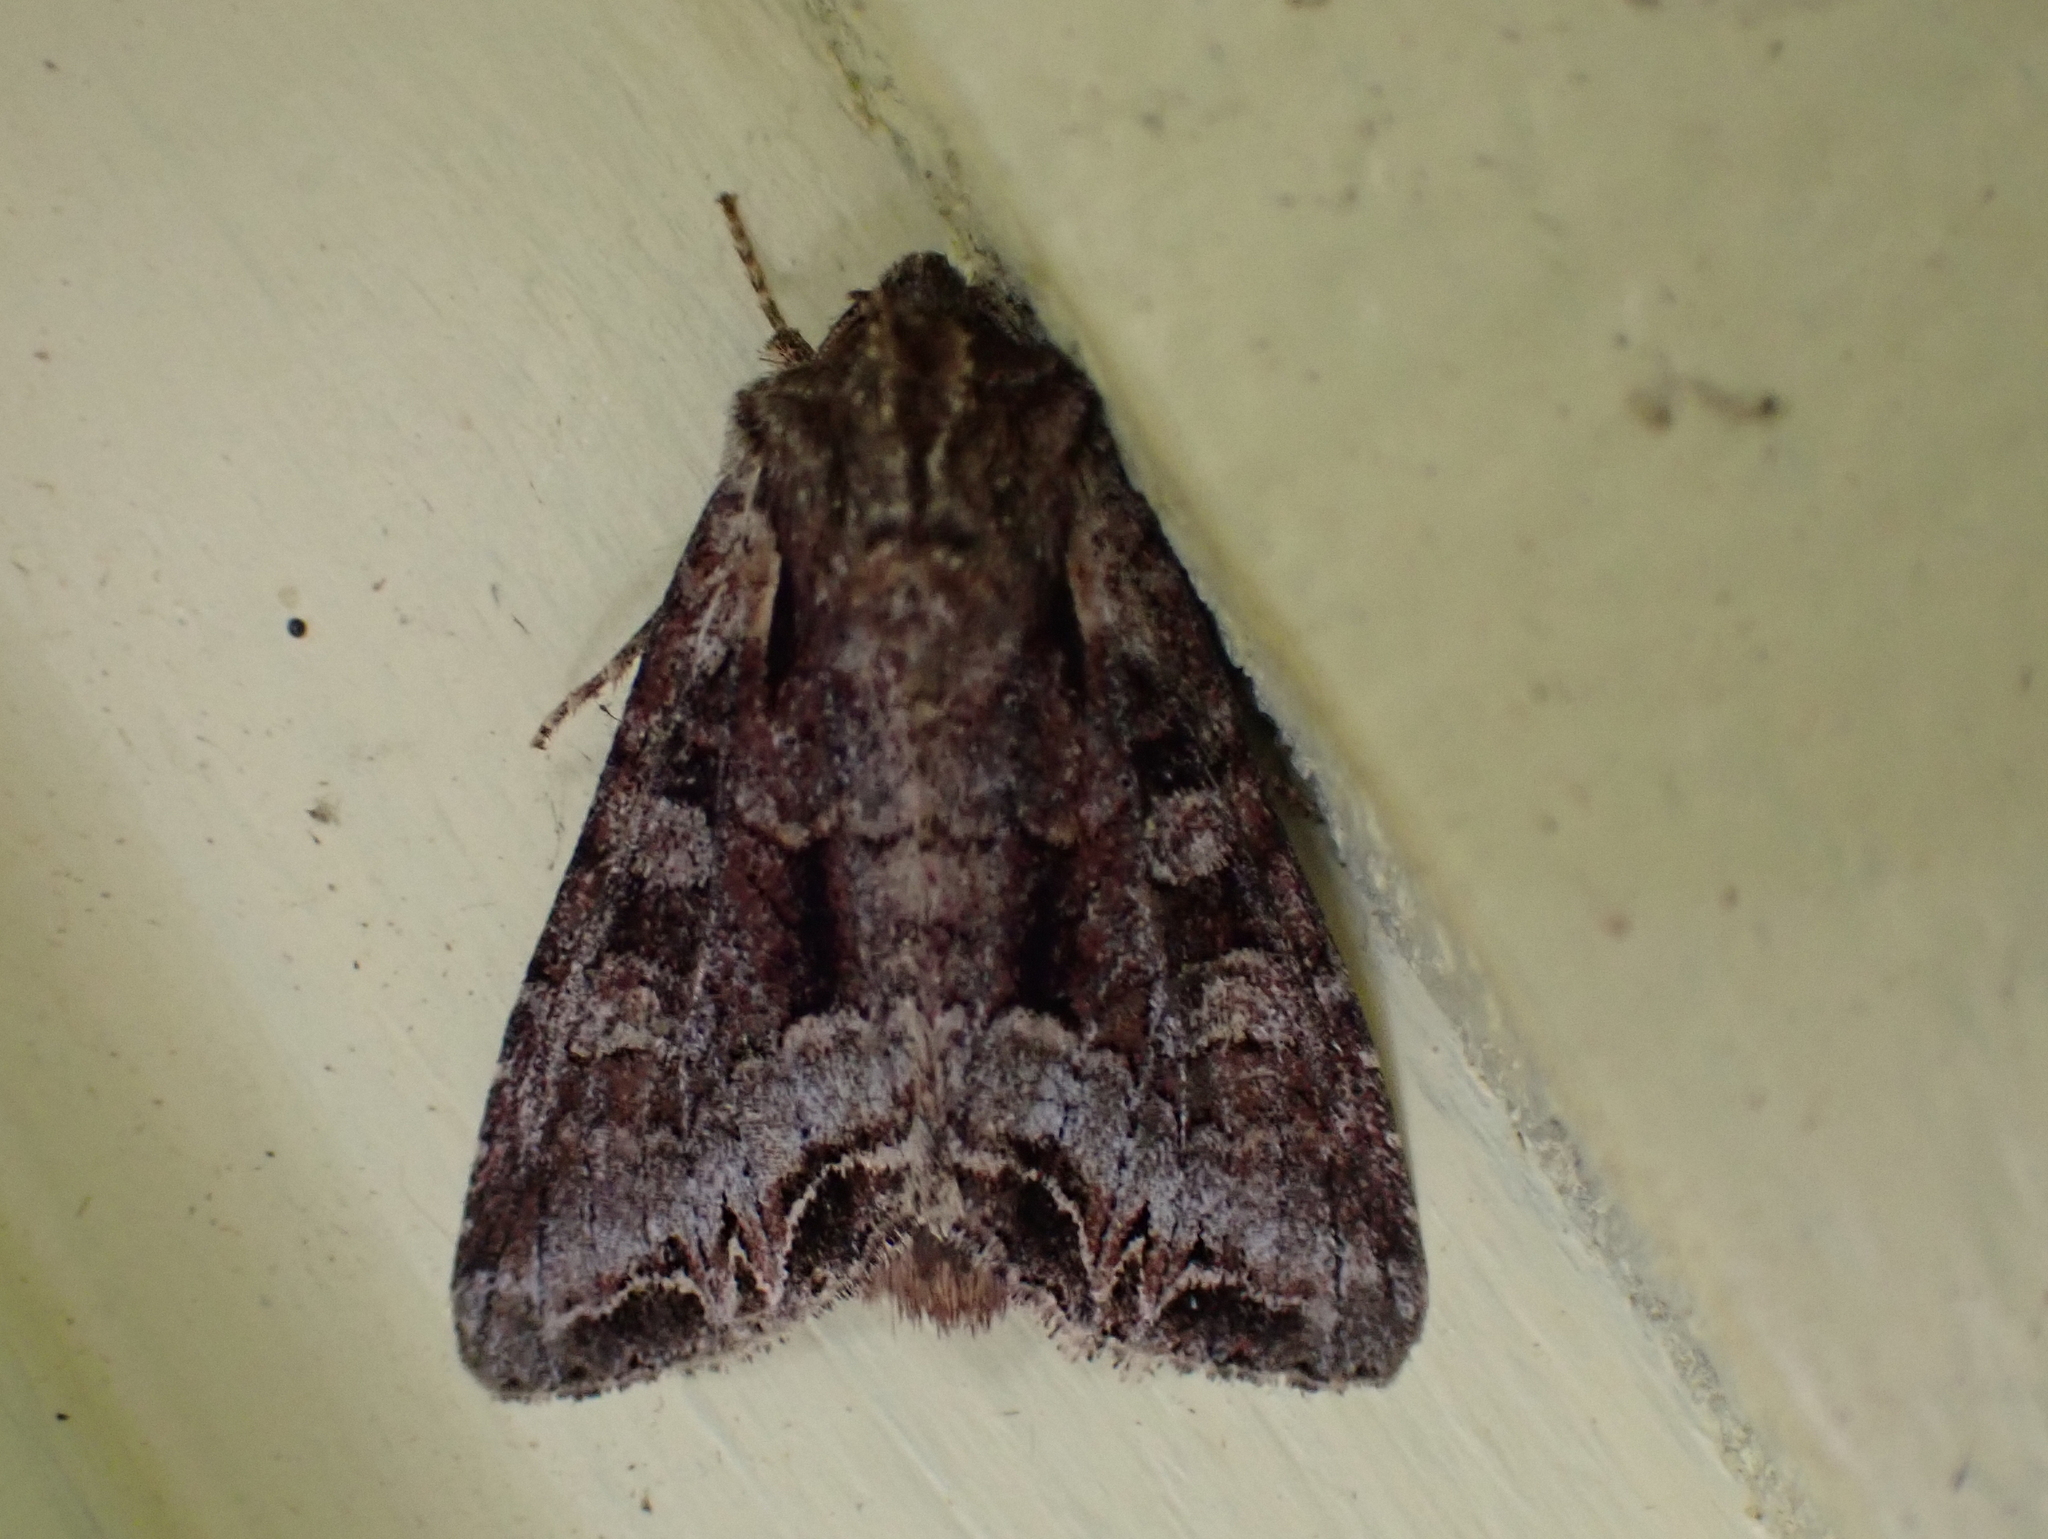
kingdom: Animalia
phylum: Arthropoda
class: Insecta
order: Lepidoptera
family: Noctuidae
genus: Lacanobia
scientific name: Lacanobia grandis
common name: Grand arches moth
